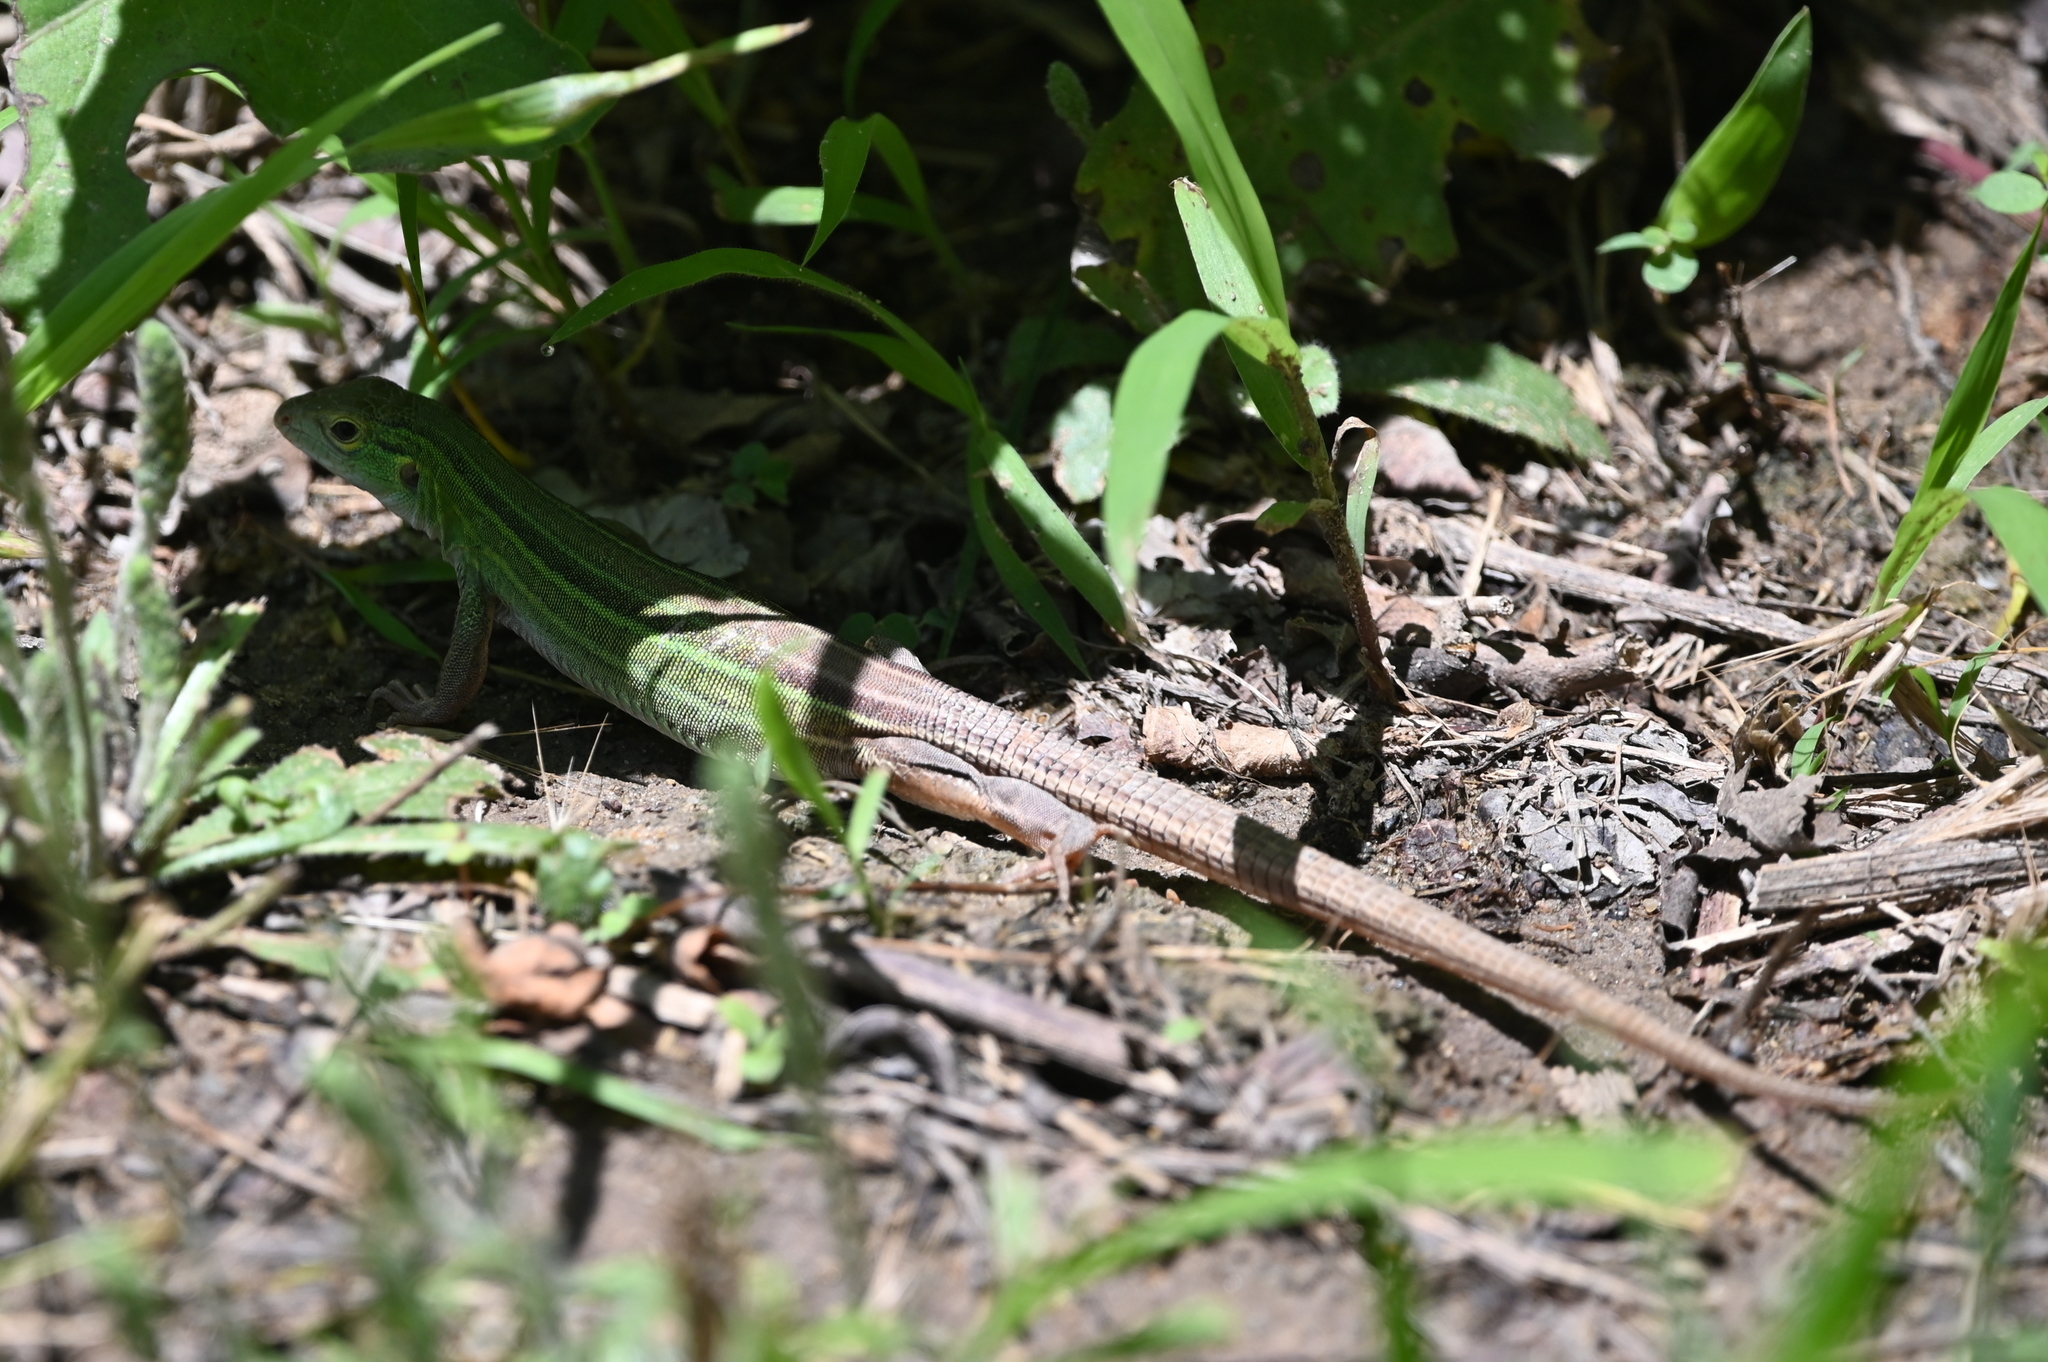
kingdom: Animalia
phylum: Chordata
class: Squamata
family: Teiidae
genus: Aspidoscelis
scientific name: Aspidoscelis sexlineatus
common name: Six-lined racerunner
